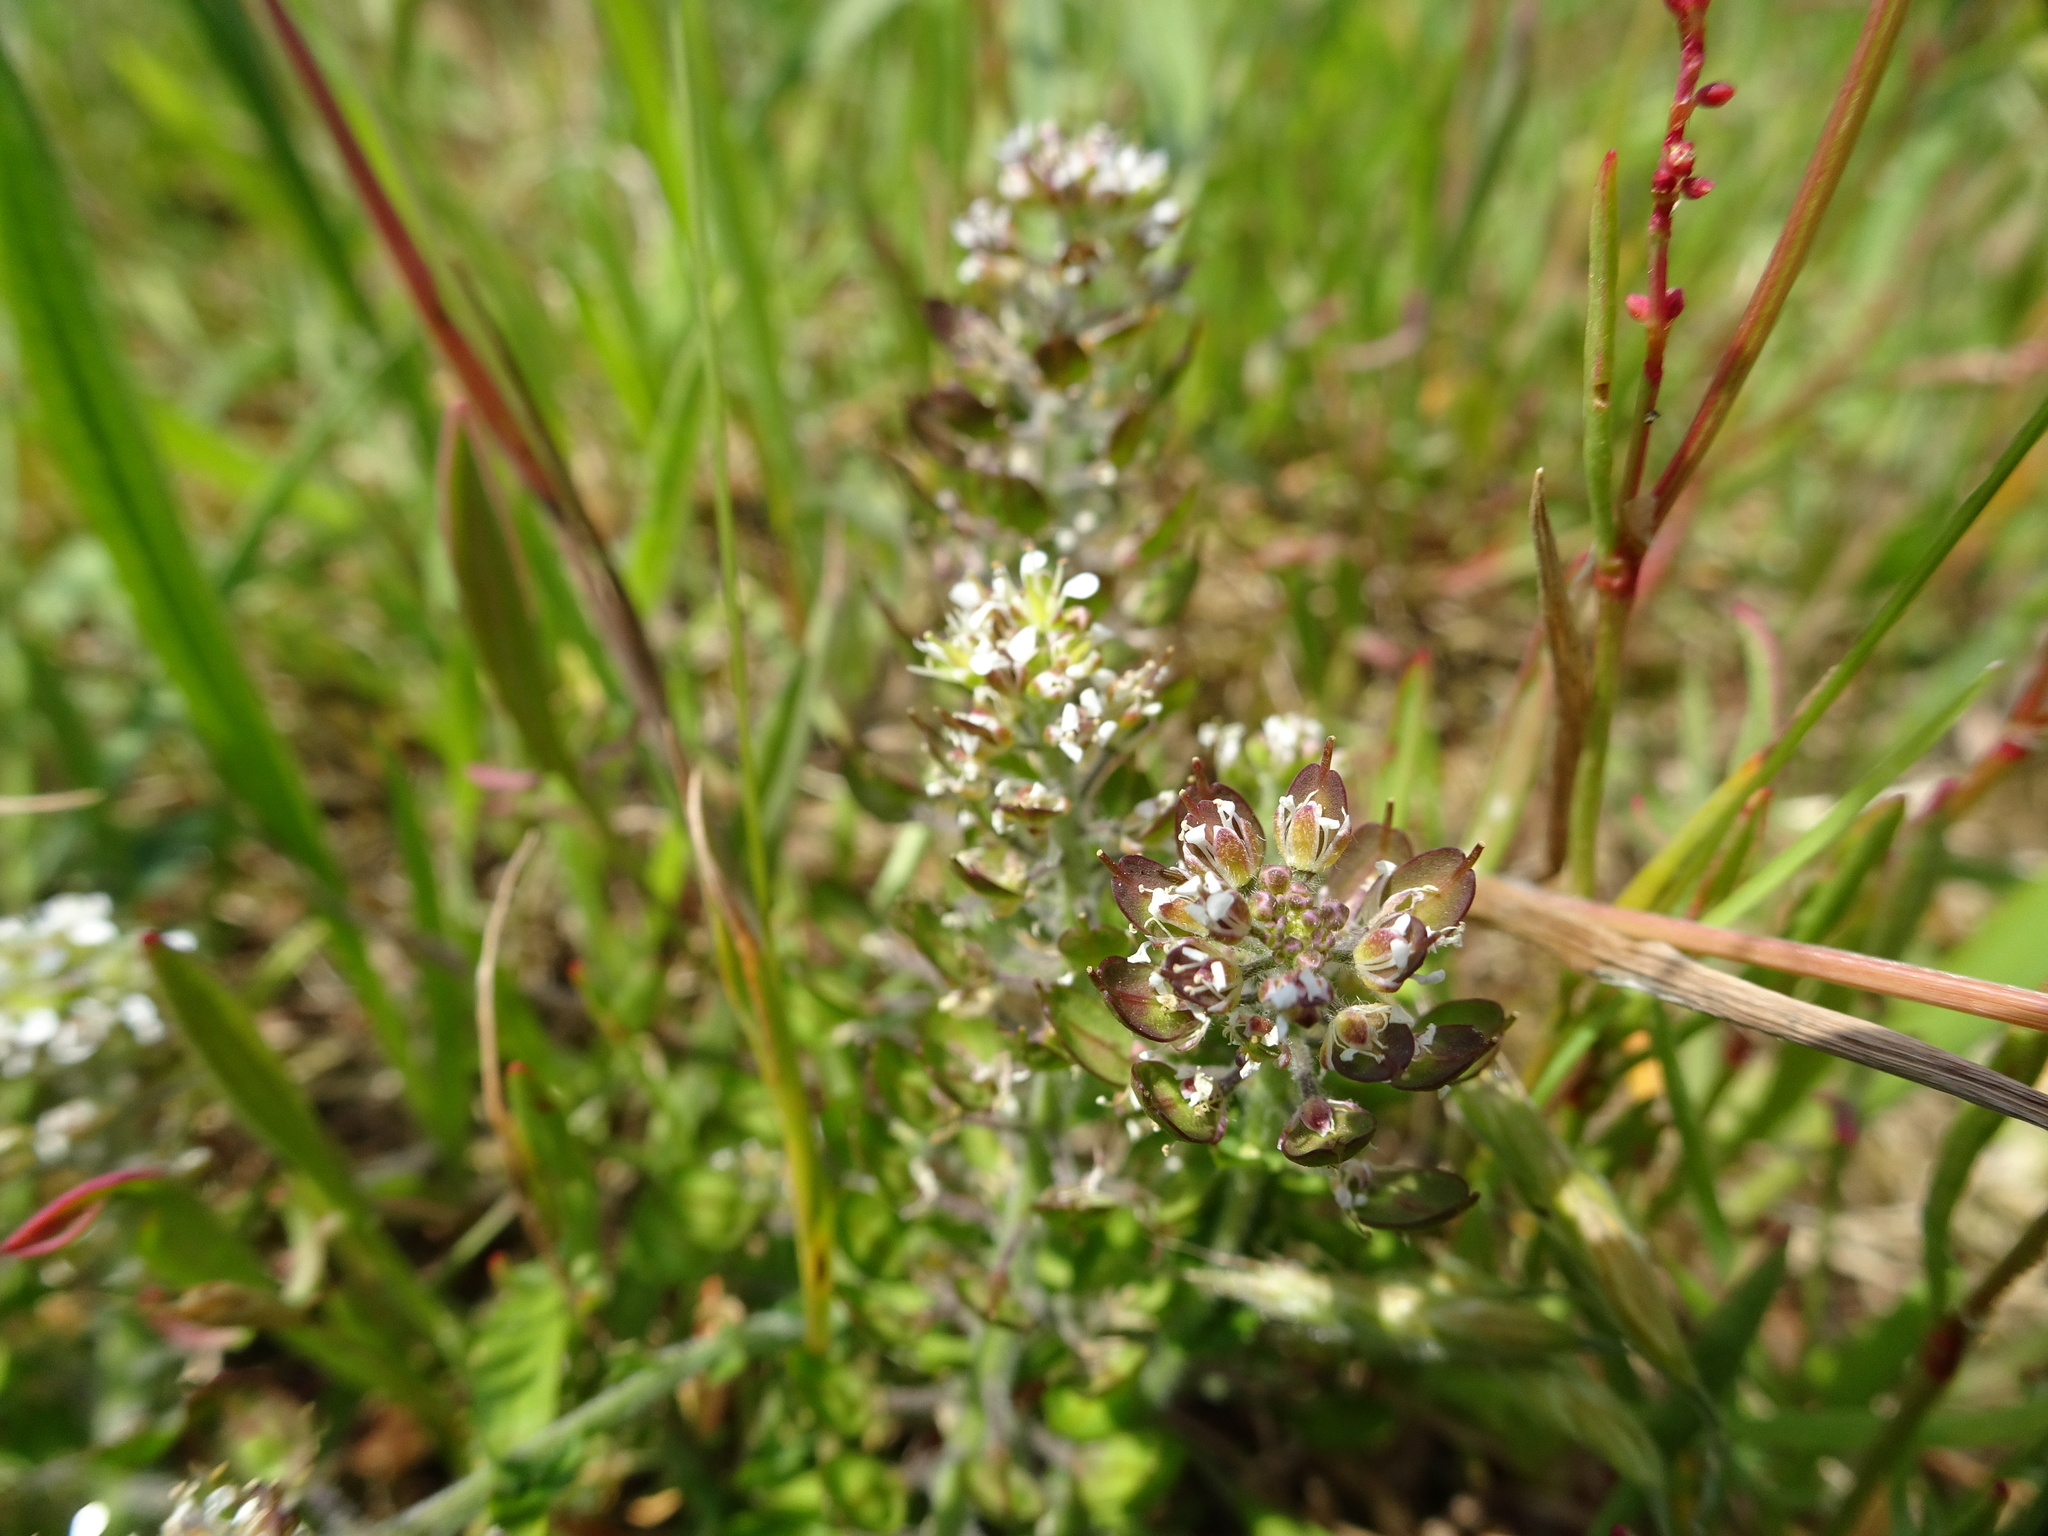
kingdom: Plantae
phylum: Tracheophyta
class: Magnoliopsida
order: Brassicales
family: Brassicaceae
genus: Lepidium
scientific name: Lepidium heterophyllum
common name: Smith's pepperwort
